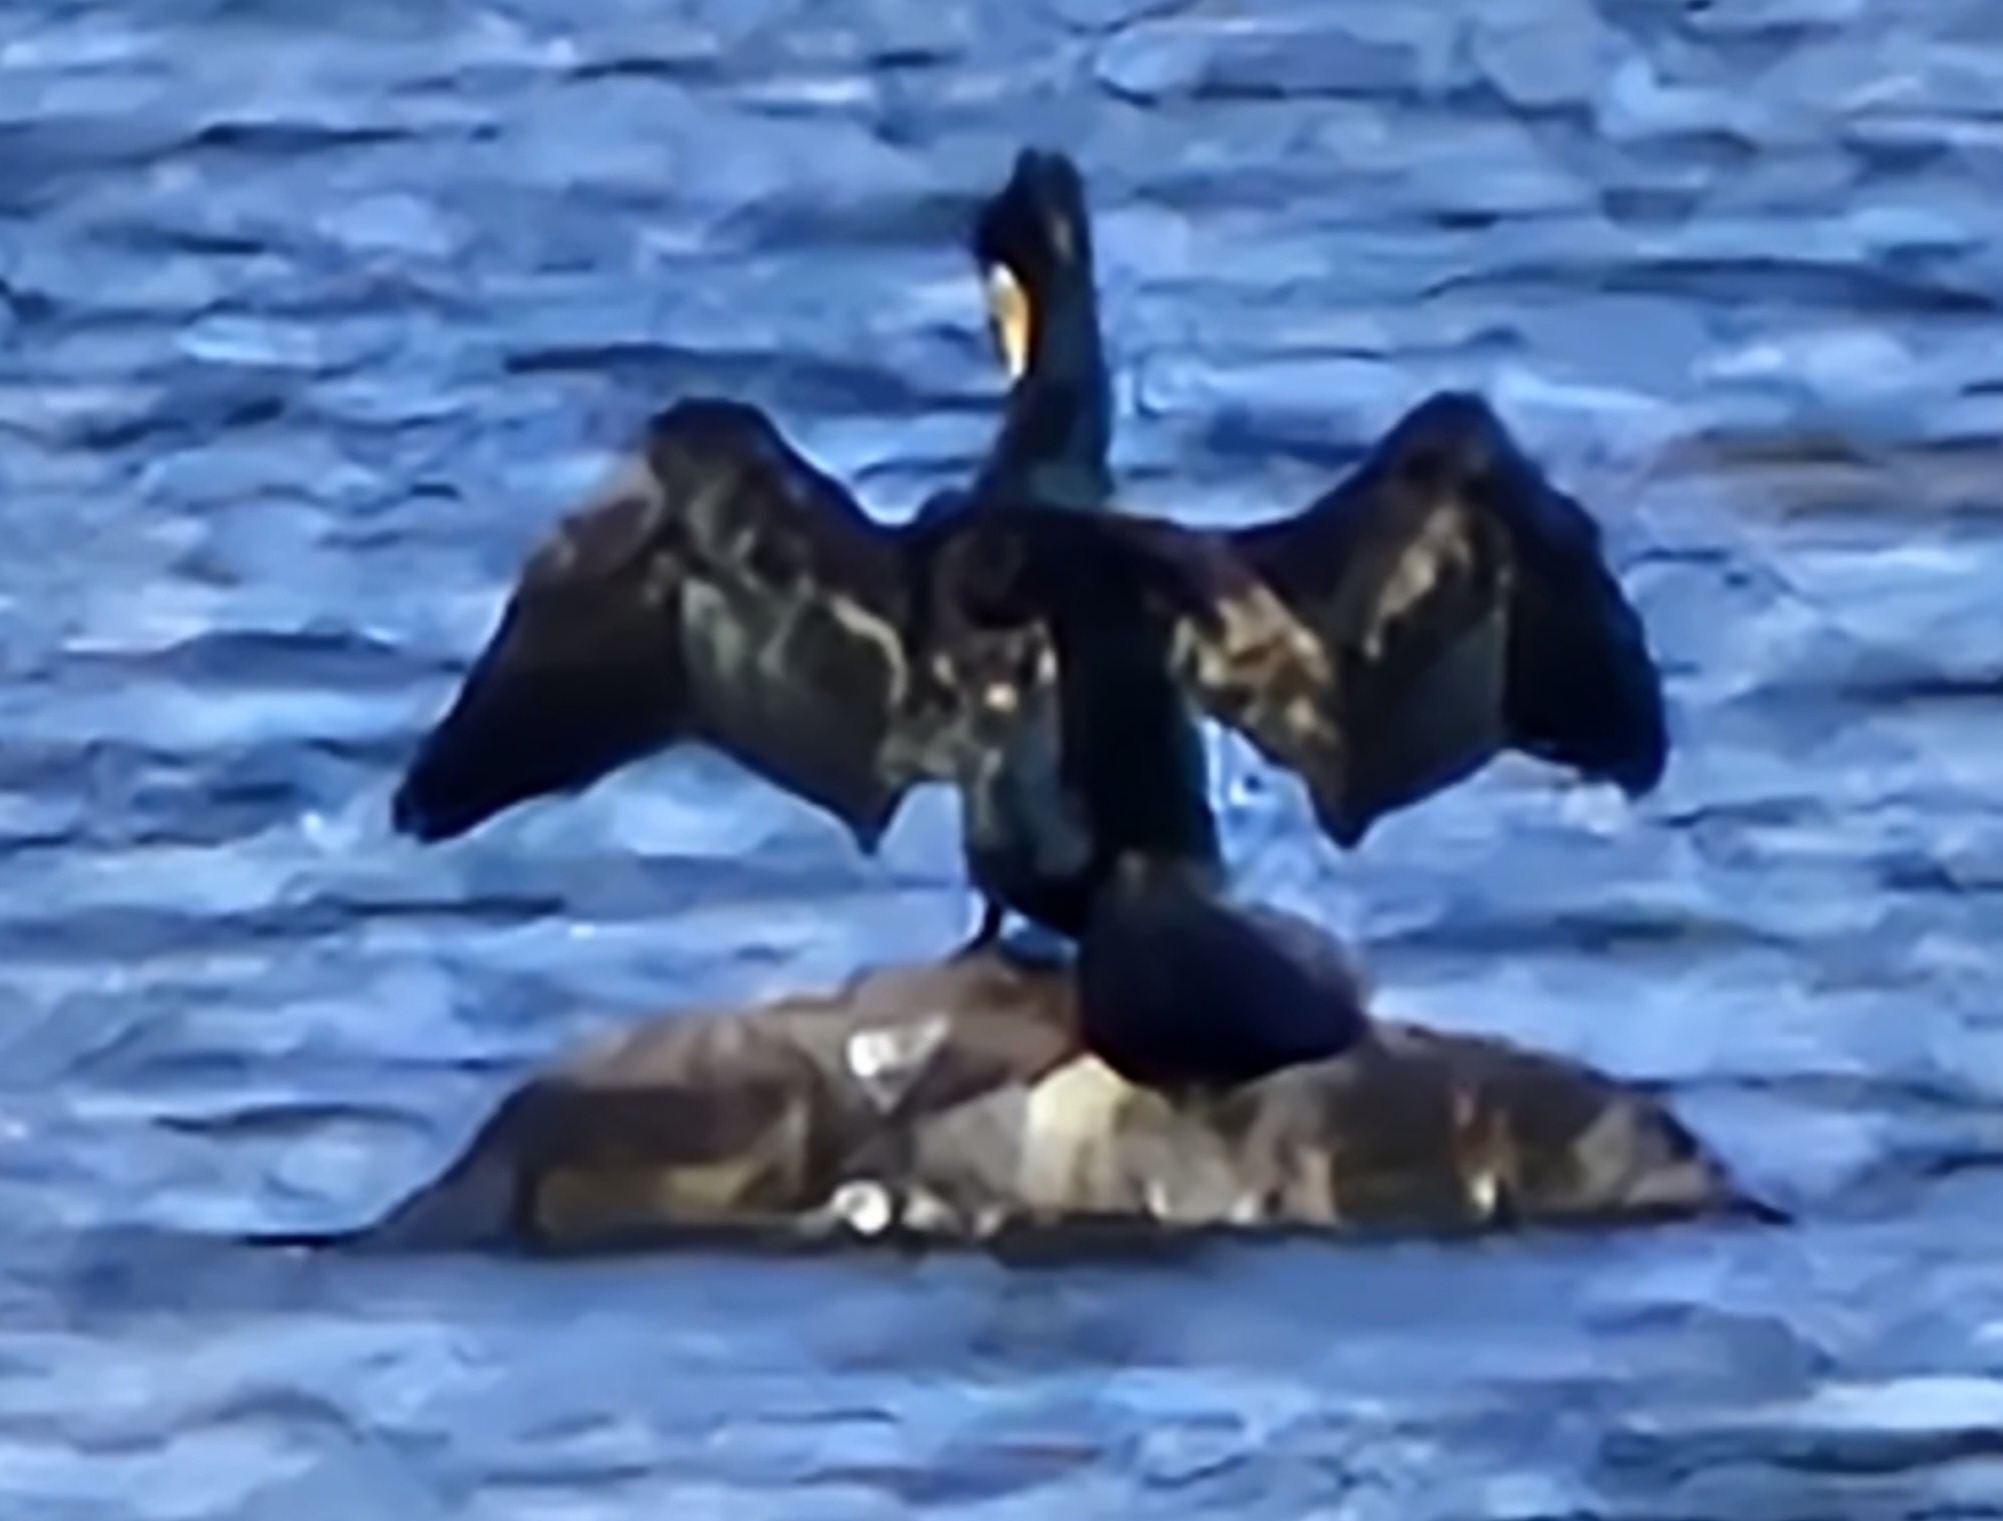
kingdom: Animalia
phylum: Chordata
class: Aves
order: Suliformes
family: Phalacrocoracidae
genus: Phalacrocorax
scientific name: Phalacrocorax carbo
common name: Great cormorant
